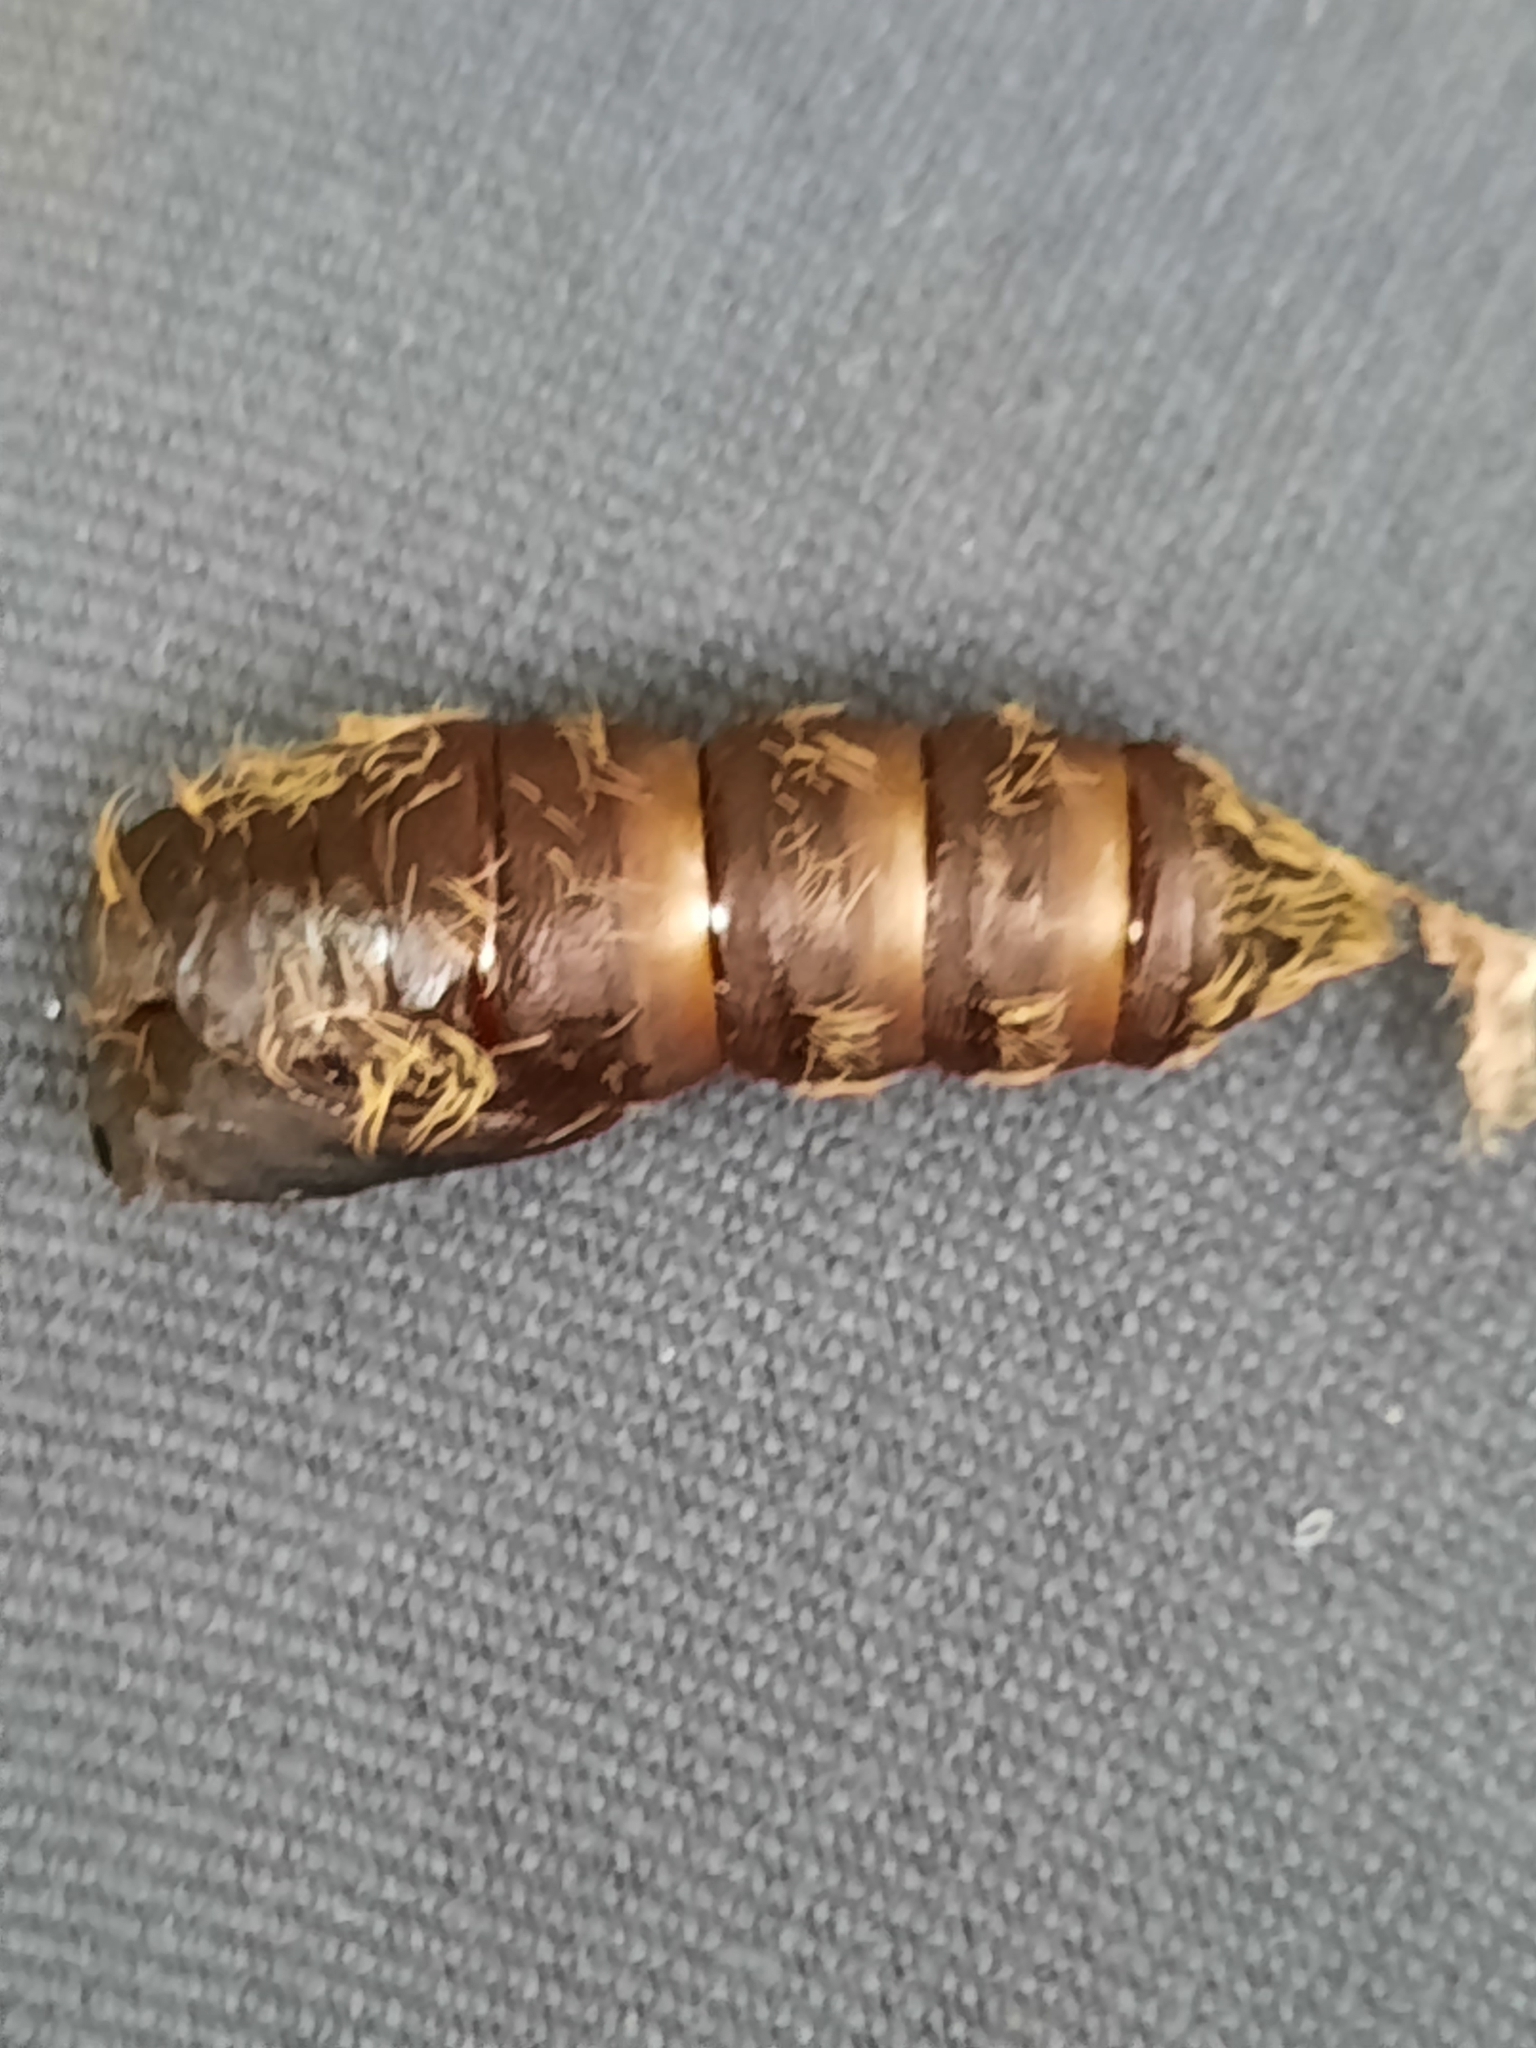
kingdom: Animalia
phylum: Arthropoda
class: Insecta
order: Lepidoptera
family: Erebidae
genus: Lymantria
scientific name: Lymantria dispar
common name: Gypsy moth
